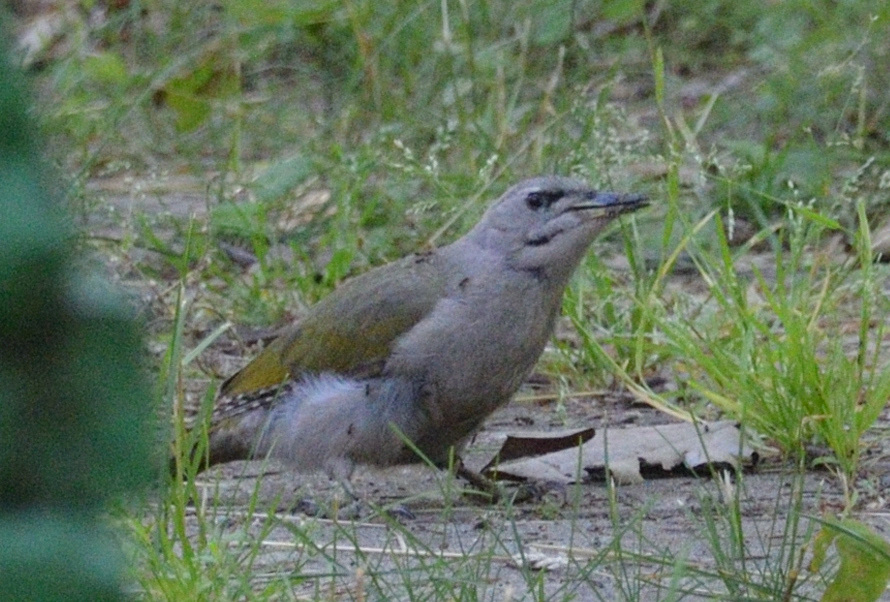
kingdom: Animalia
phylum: Chordata
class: Aves
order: Piciformes
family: Picidae
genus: Picus
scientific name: Picus canus
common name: Grey-headed woodpecker
